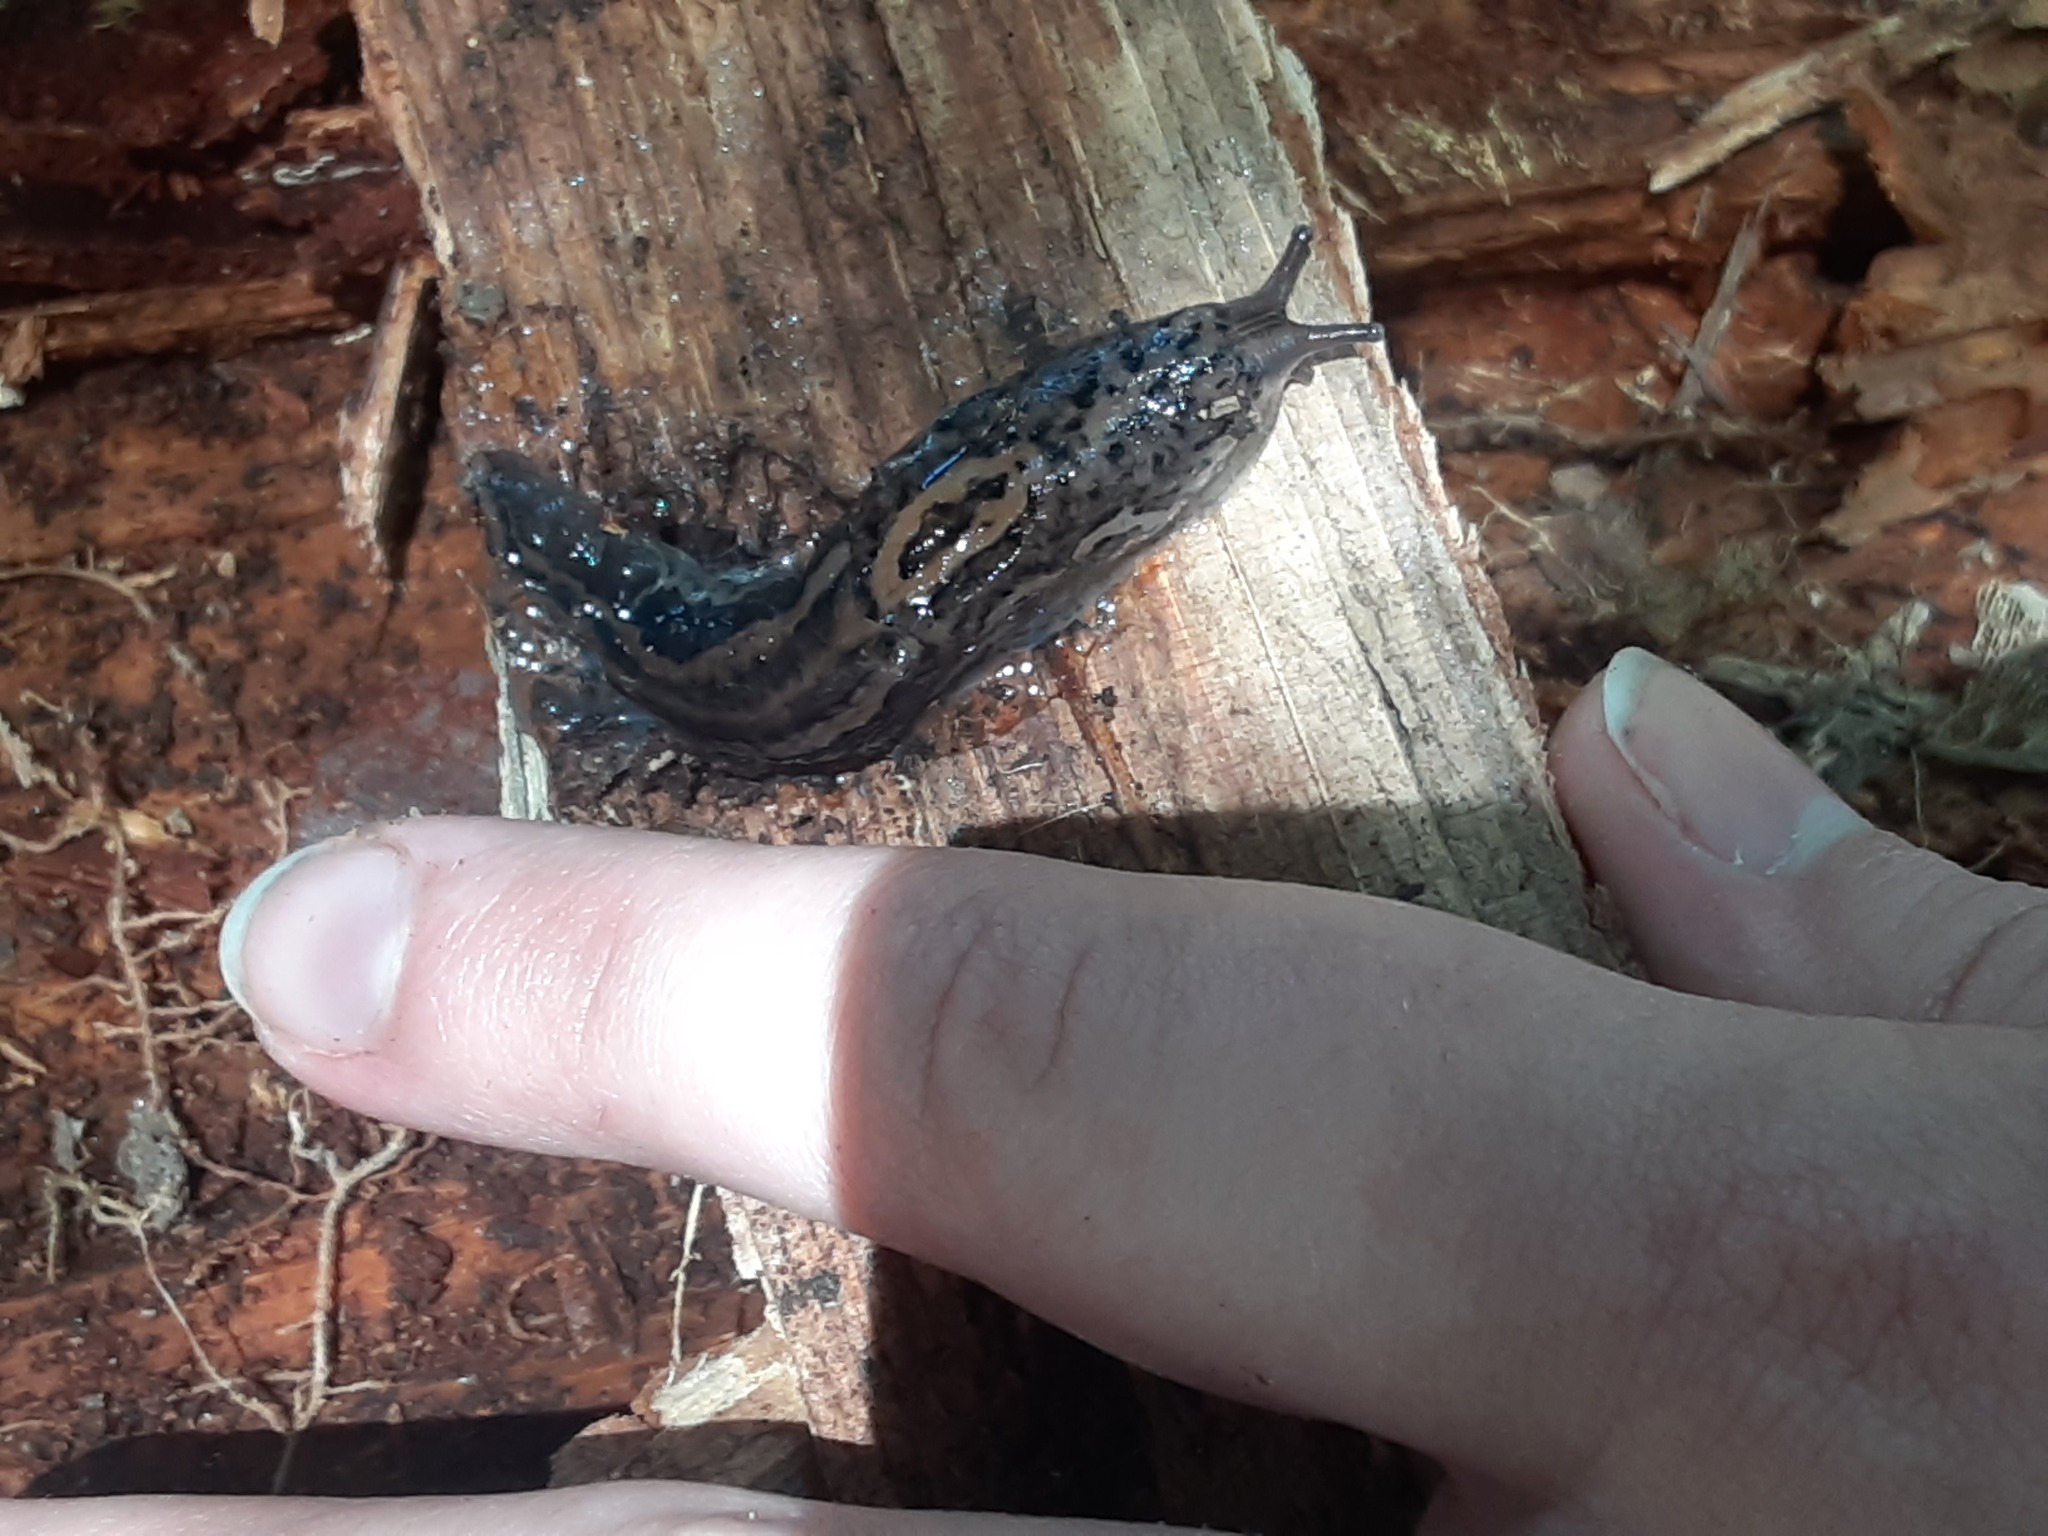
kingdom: Animalia
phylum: Mollusca
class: Gastropoda
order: Stylommatophora
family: Limacidae
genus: Limax
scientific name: Limax maximus
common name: Great grey slug
